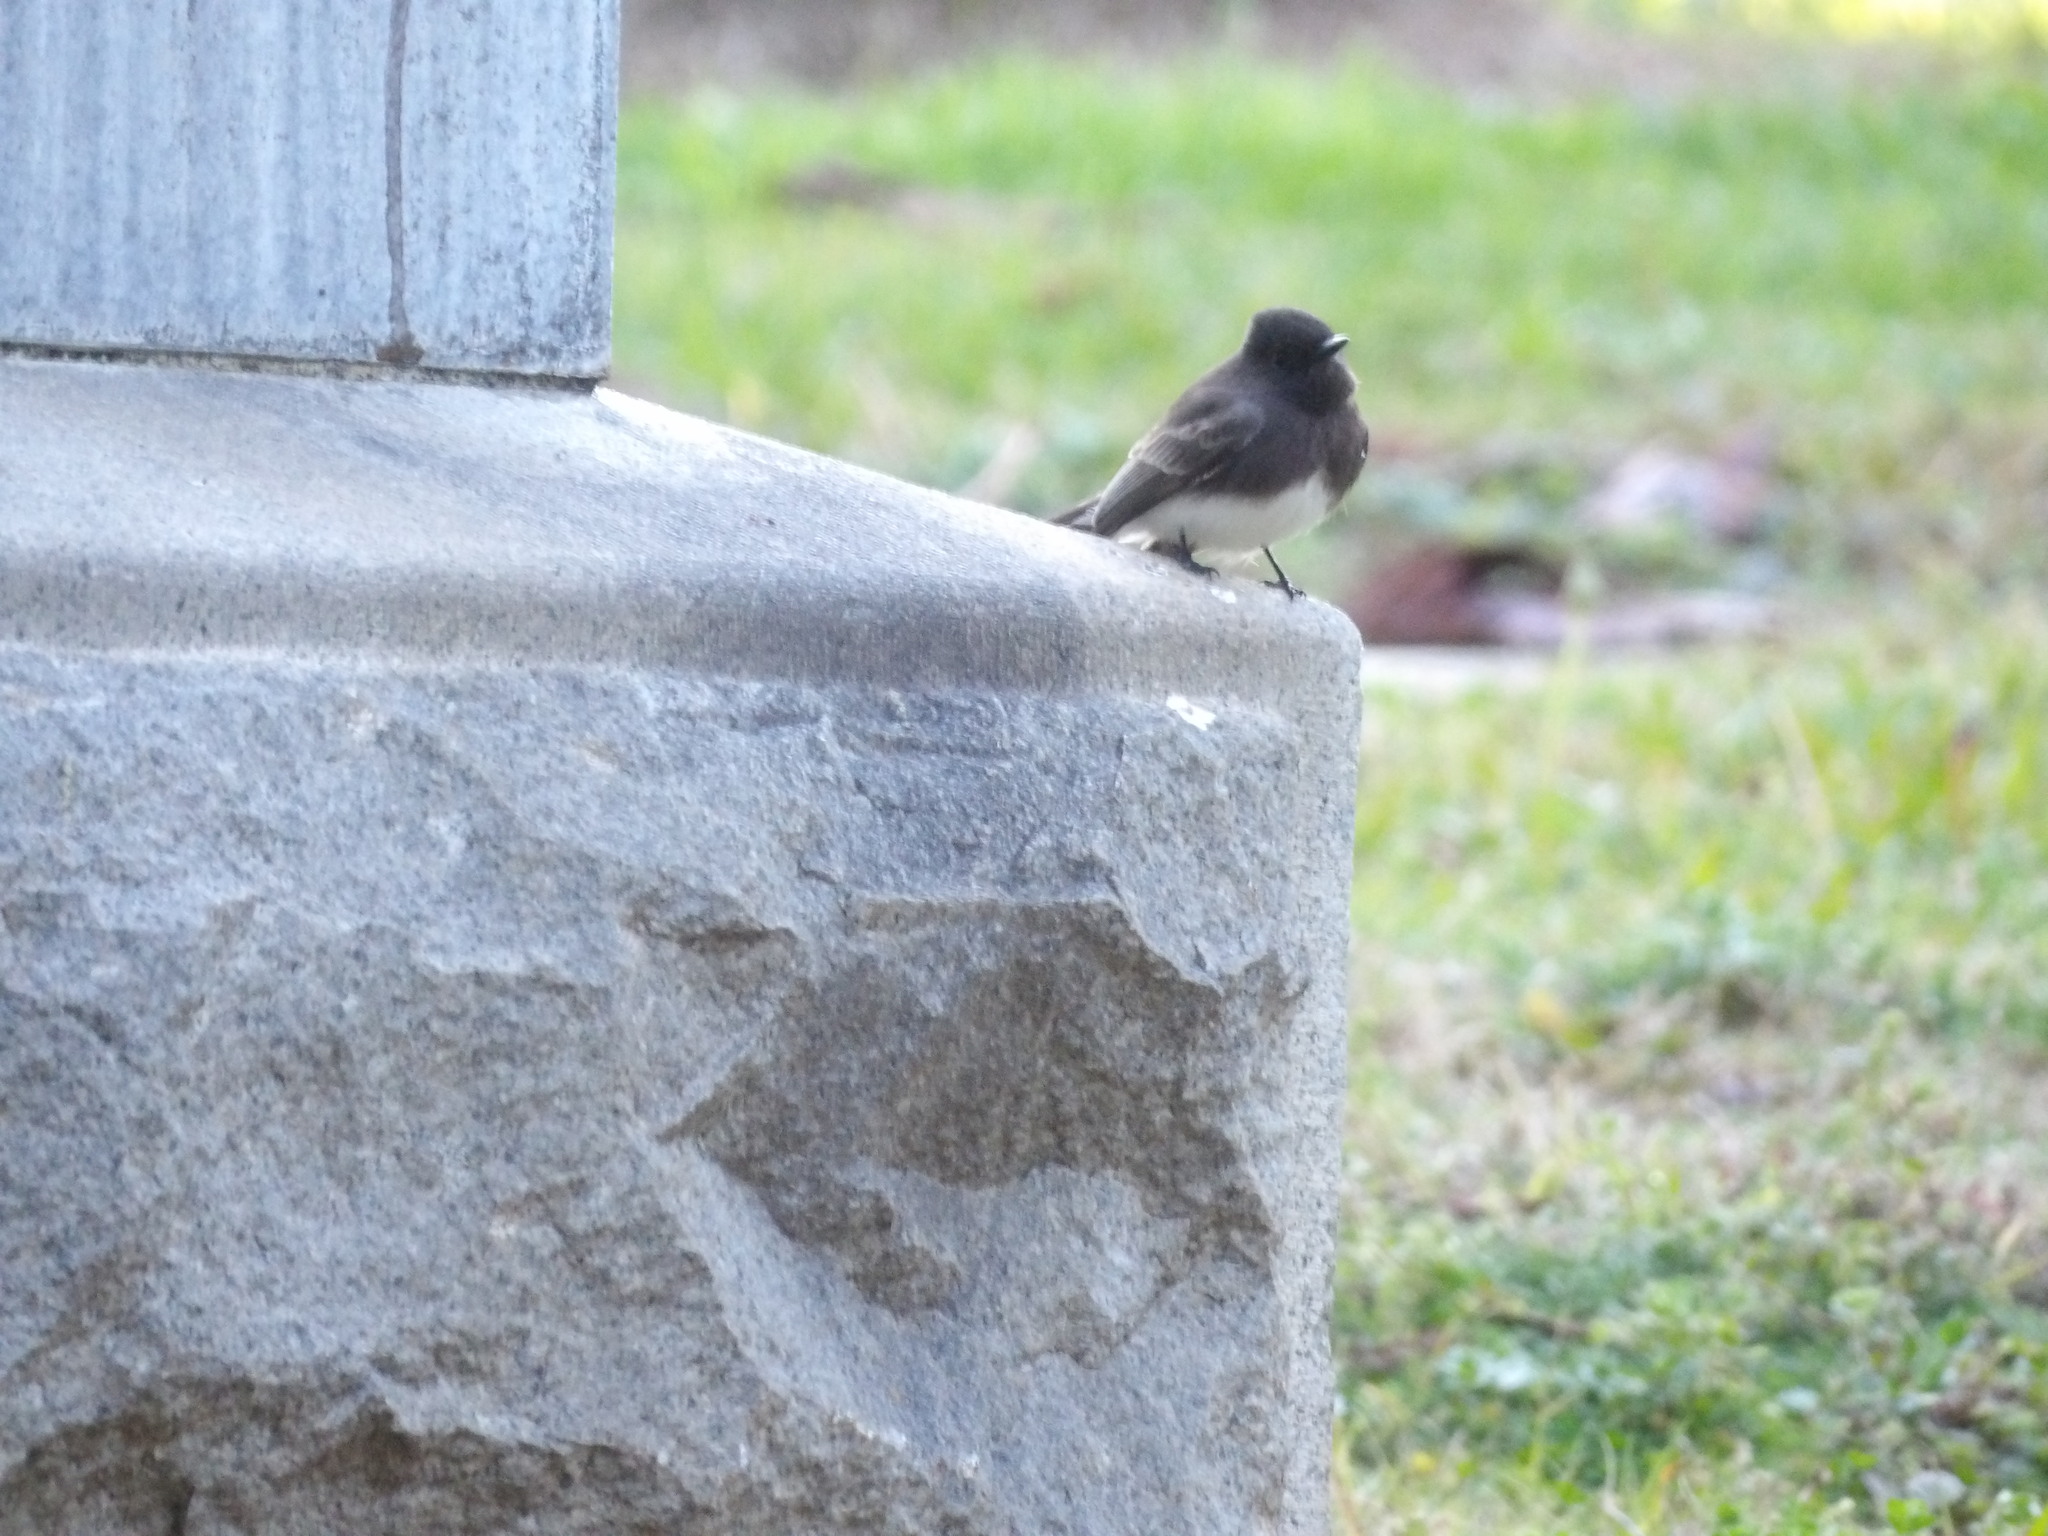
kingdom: Animalia
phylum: Chordata
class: Aves
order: Passeriformes
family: Tyrannidae
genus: Sayornis
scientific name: Sayornis nigricans
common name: Black phoebe
